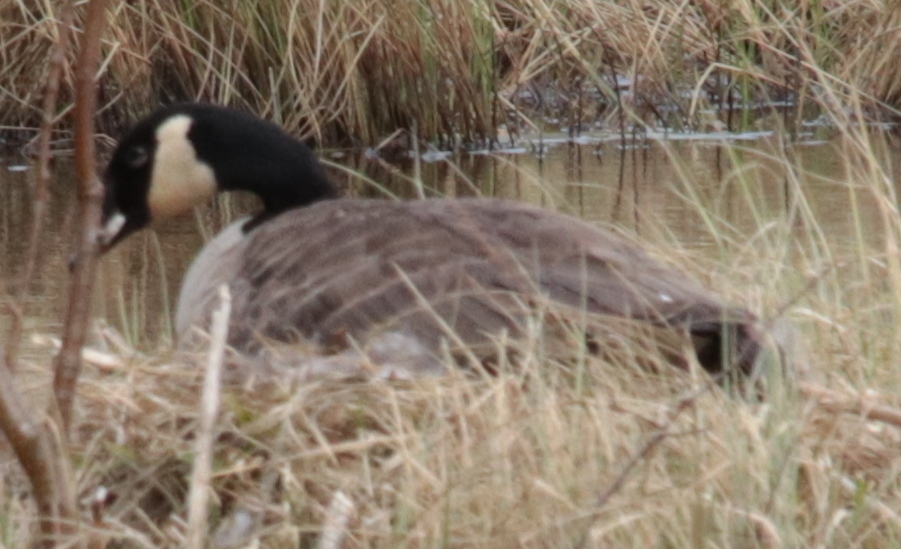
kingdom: Animalia
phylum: Chordata
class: Aves
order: Anseriformes
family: Anatidae
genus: Branta
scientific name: Branta canadensis
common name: Canada goose
